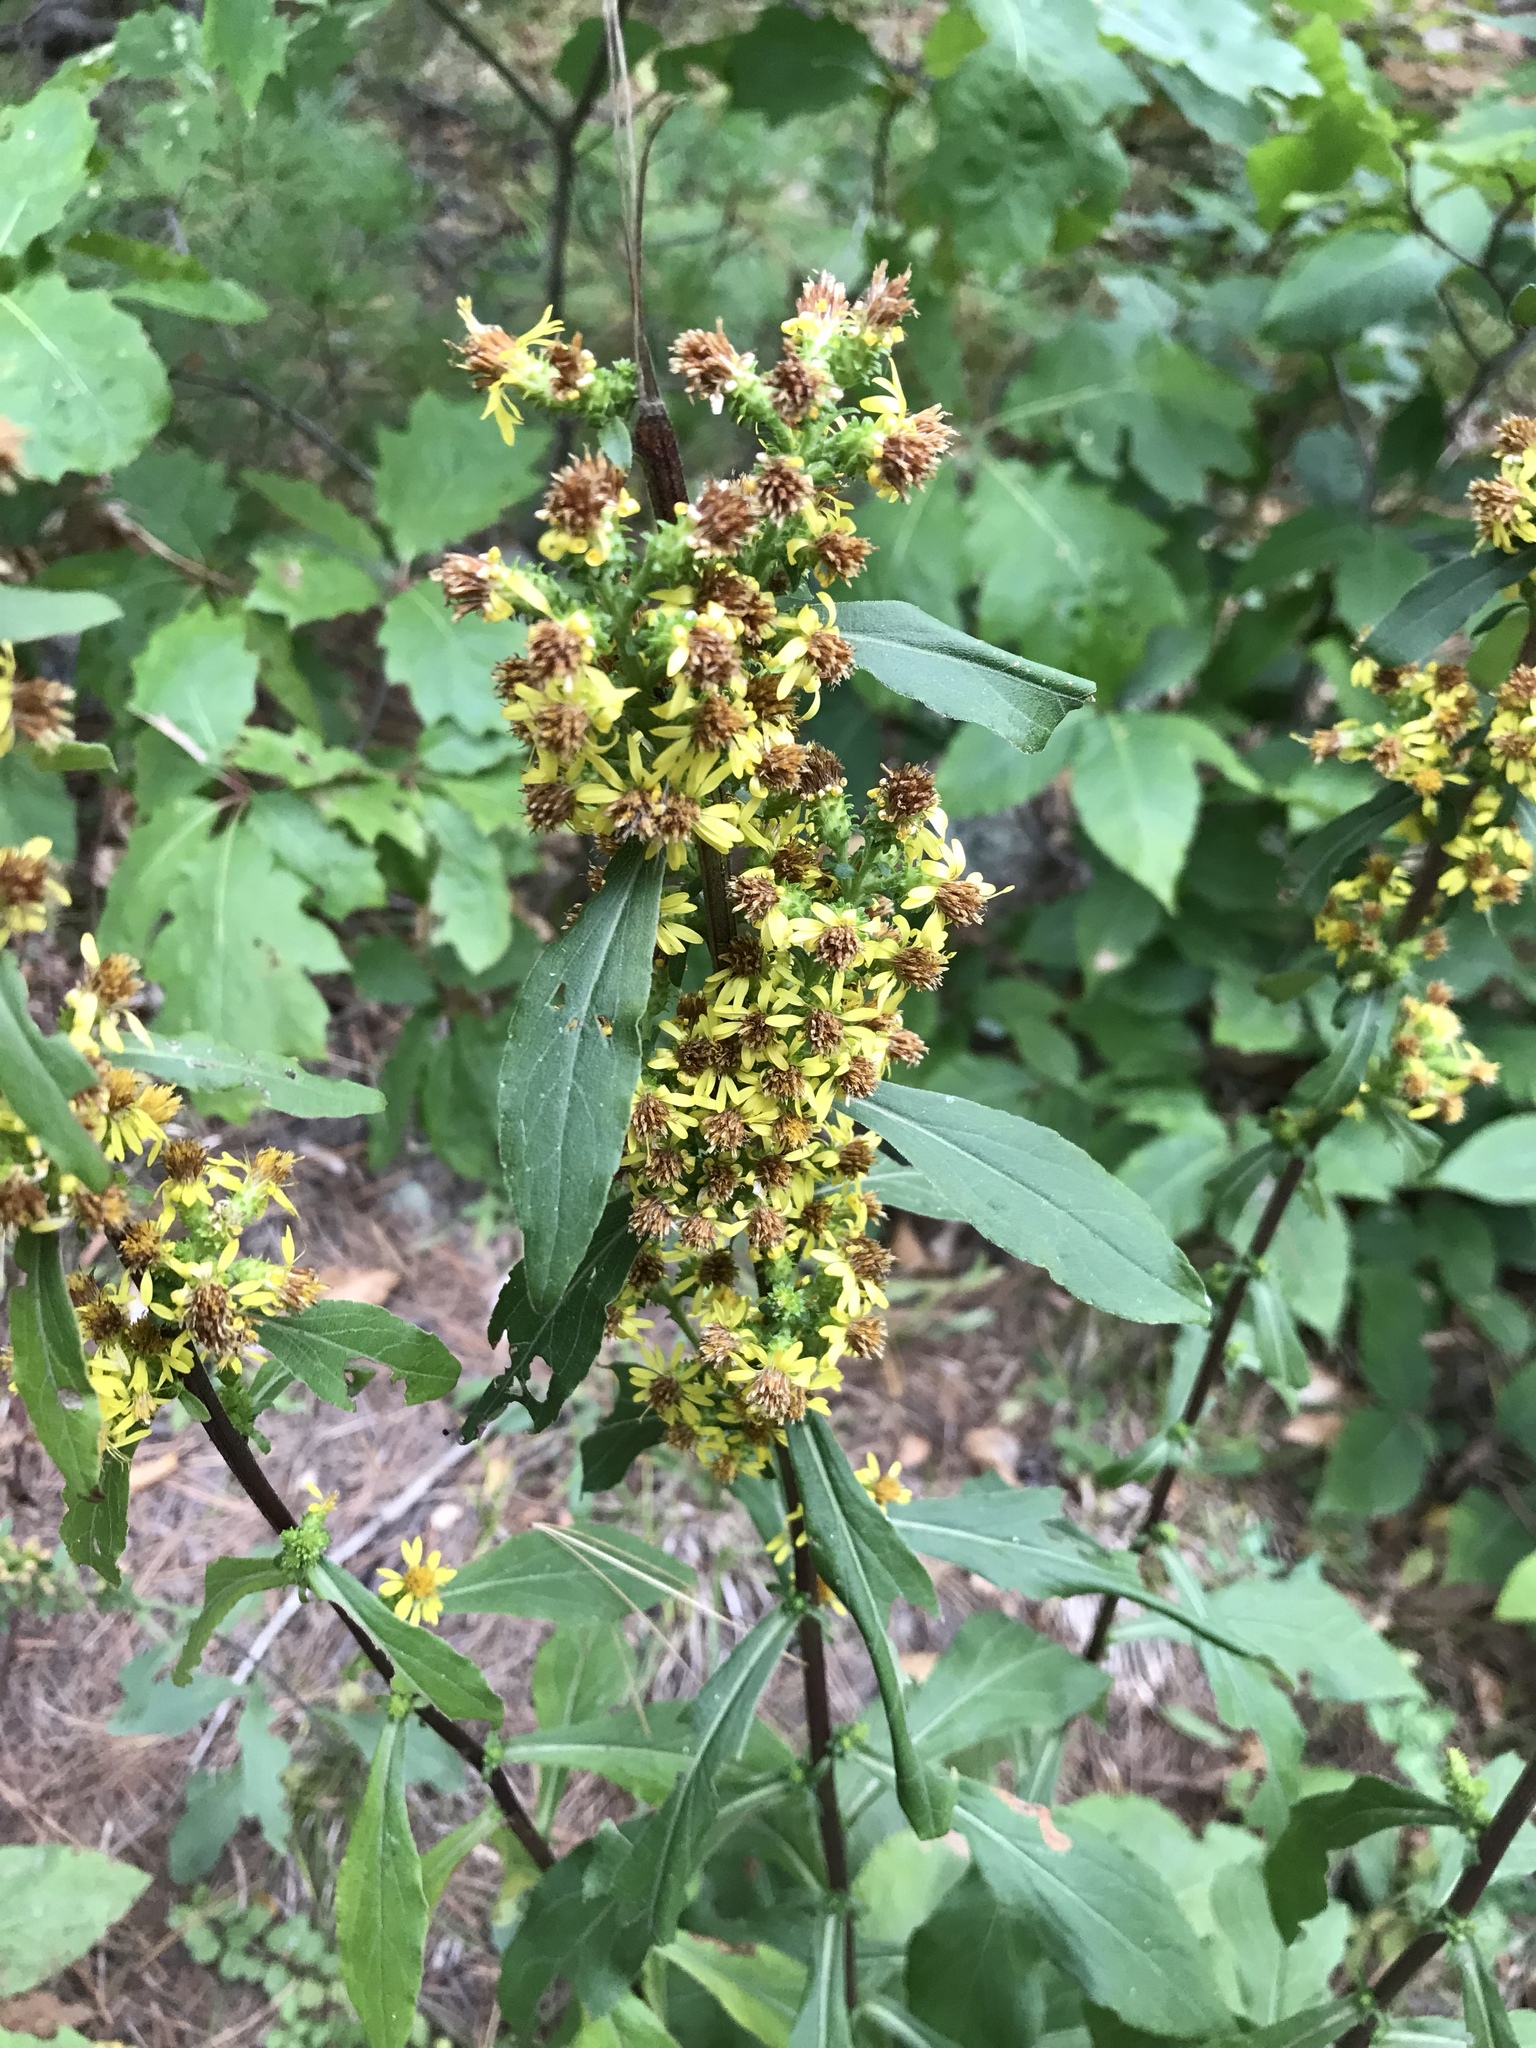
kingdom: Plantae
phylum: Tracheophyta
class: Magnoliopsida
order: Asterales
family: Asteraceae
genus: Solidago
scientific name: Solidago squarrosa
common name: Stout goldenrod
